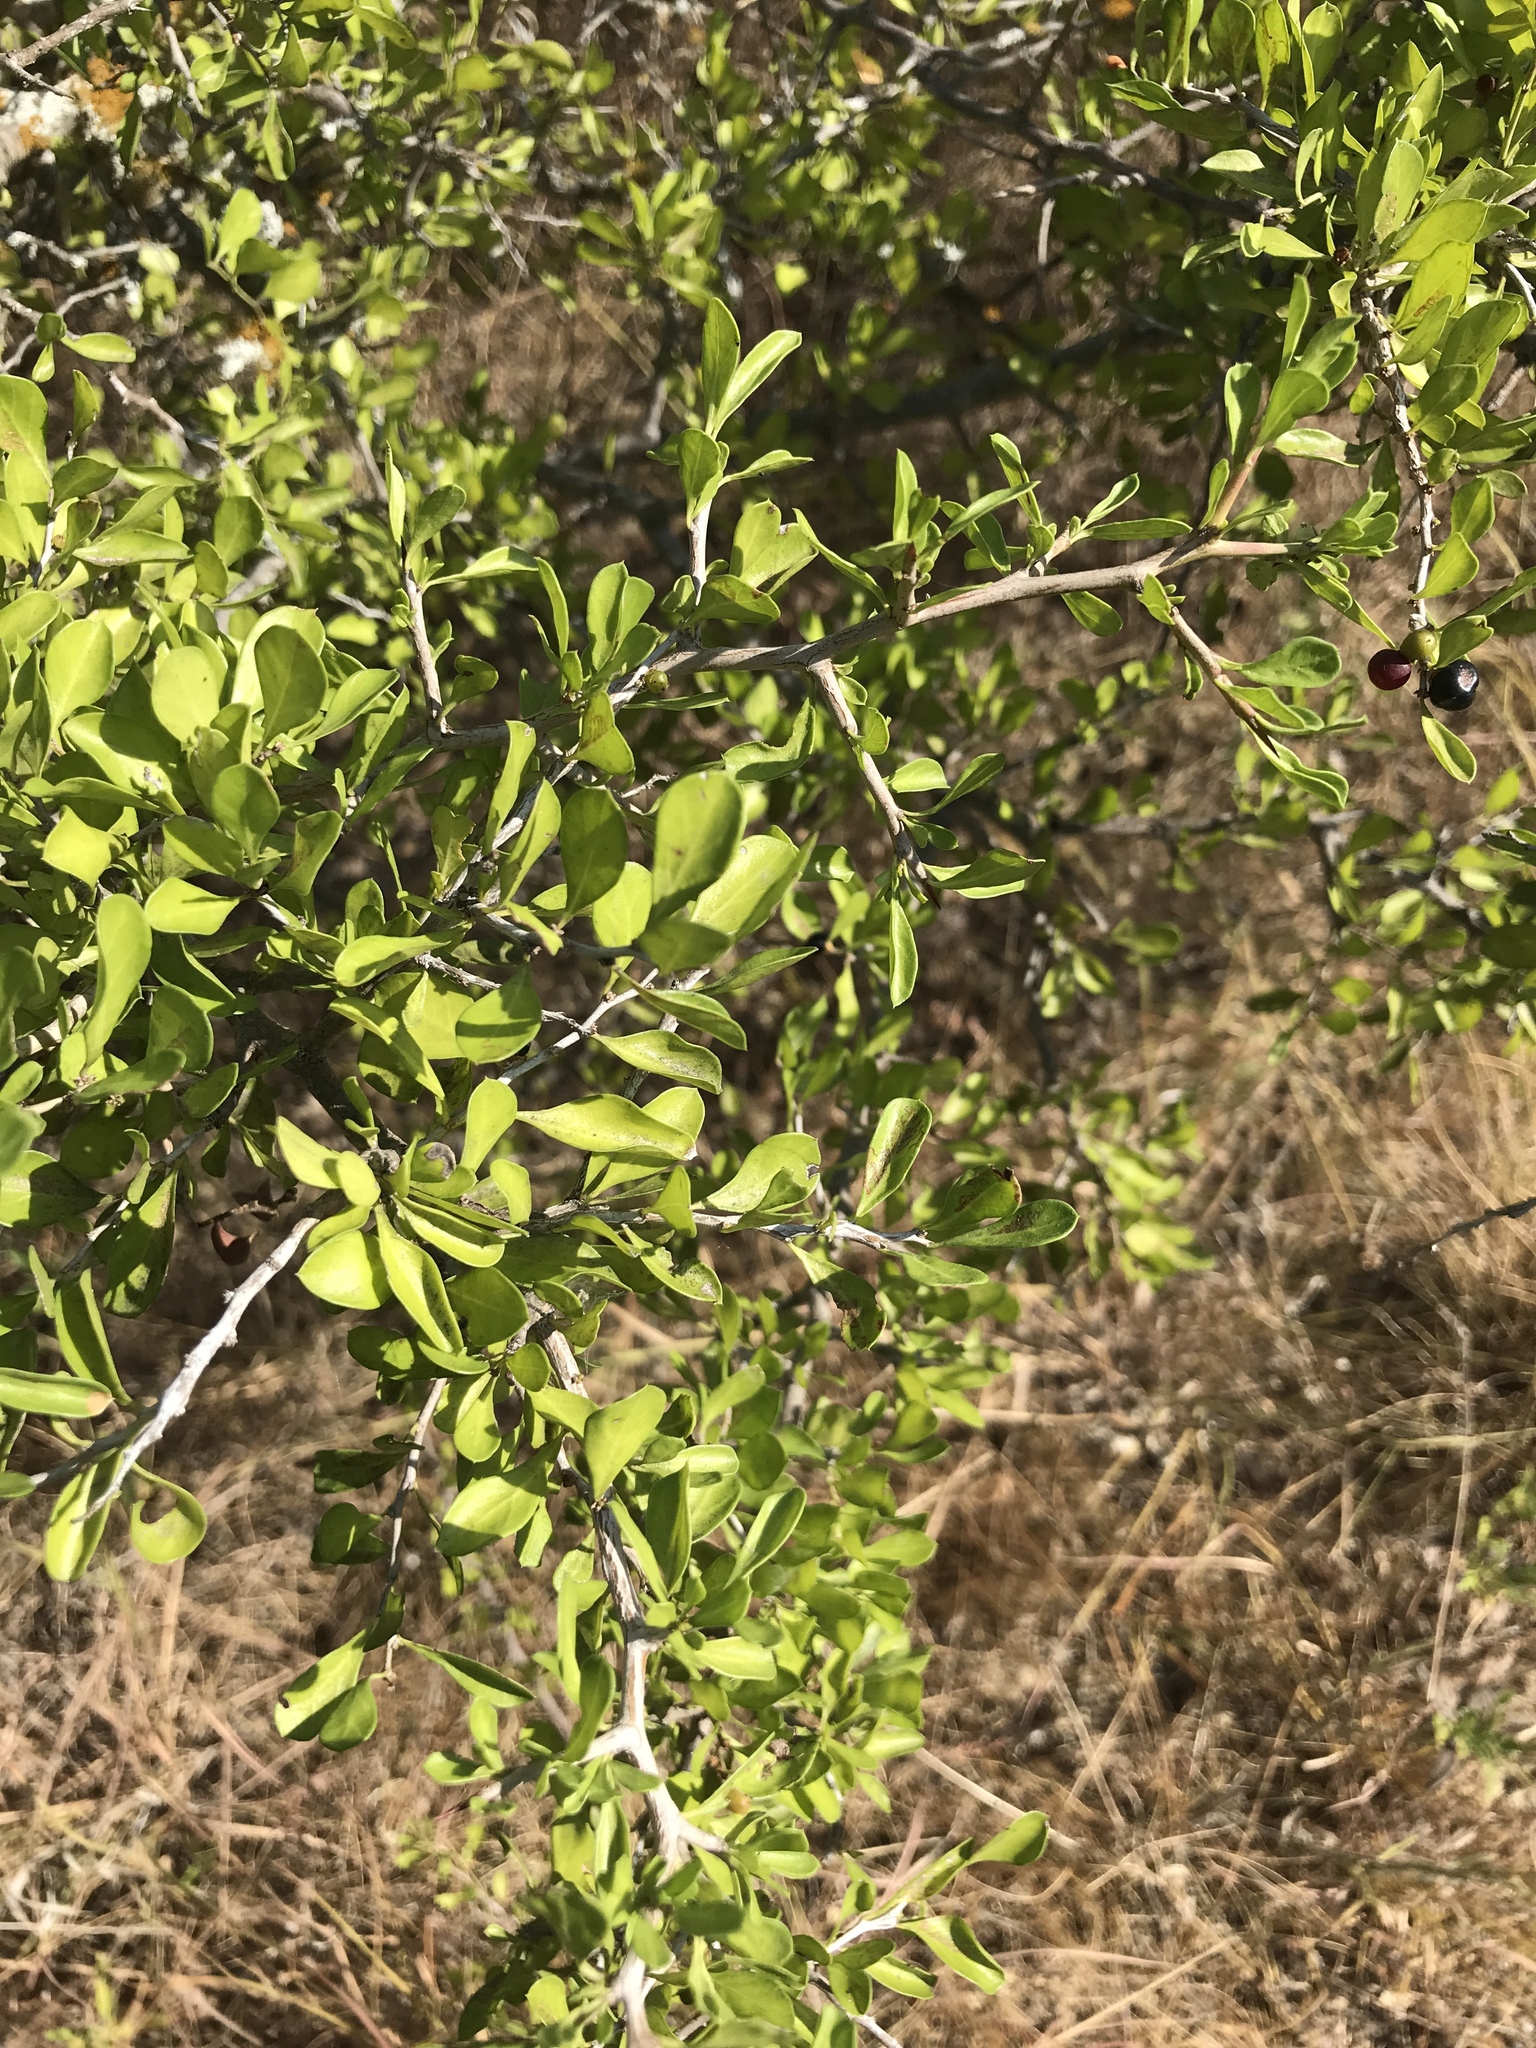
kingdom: Plantae
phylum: Tracheophyta
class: Magnoliopsida
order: Rosales
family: Rhamnaceae
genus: Condalia
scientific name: Condalia hookeri
